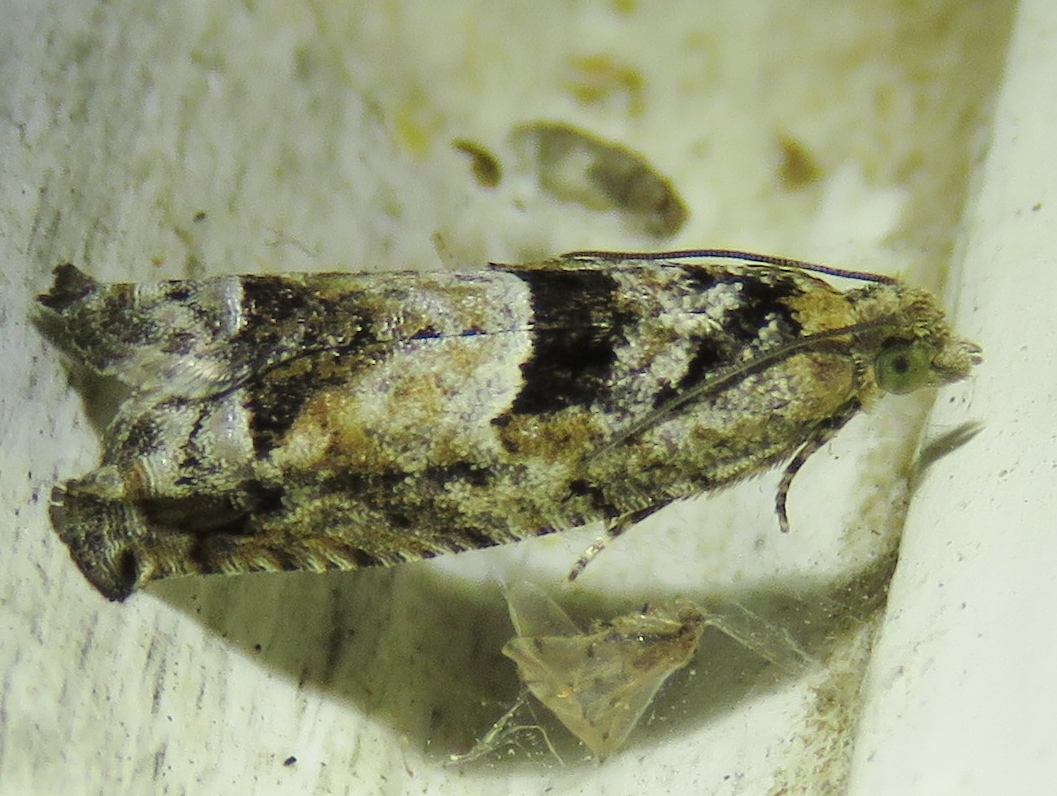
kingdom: Animalia
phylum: Arthropoda
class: Insecta
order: Lepidoptera
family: Tortricidae
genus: Pseudexentera
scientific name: Pseudexentera spoliana
